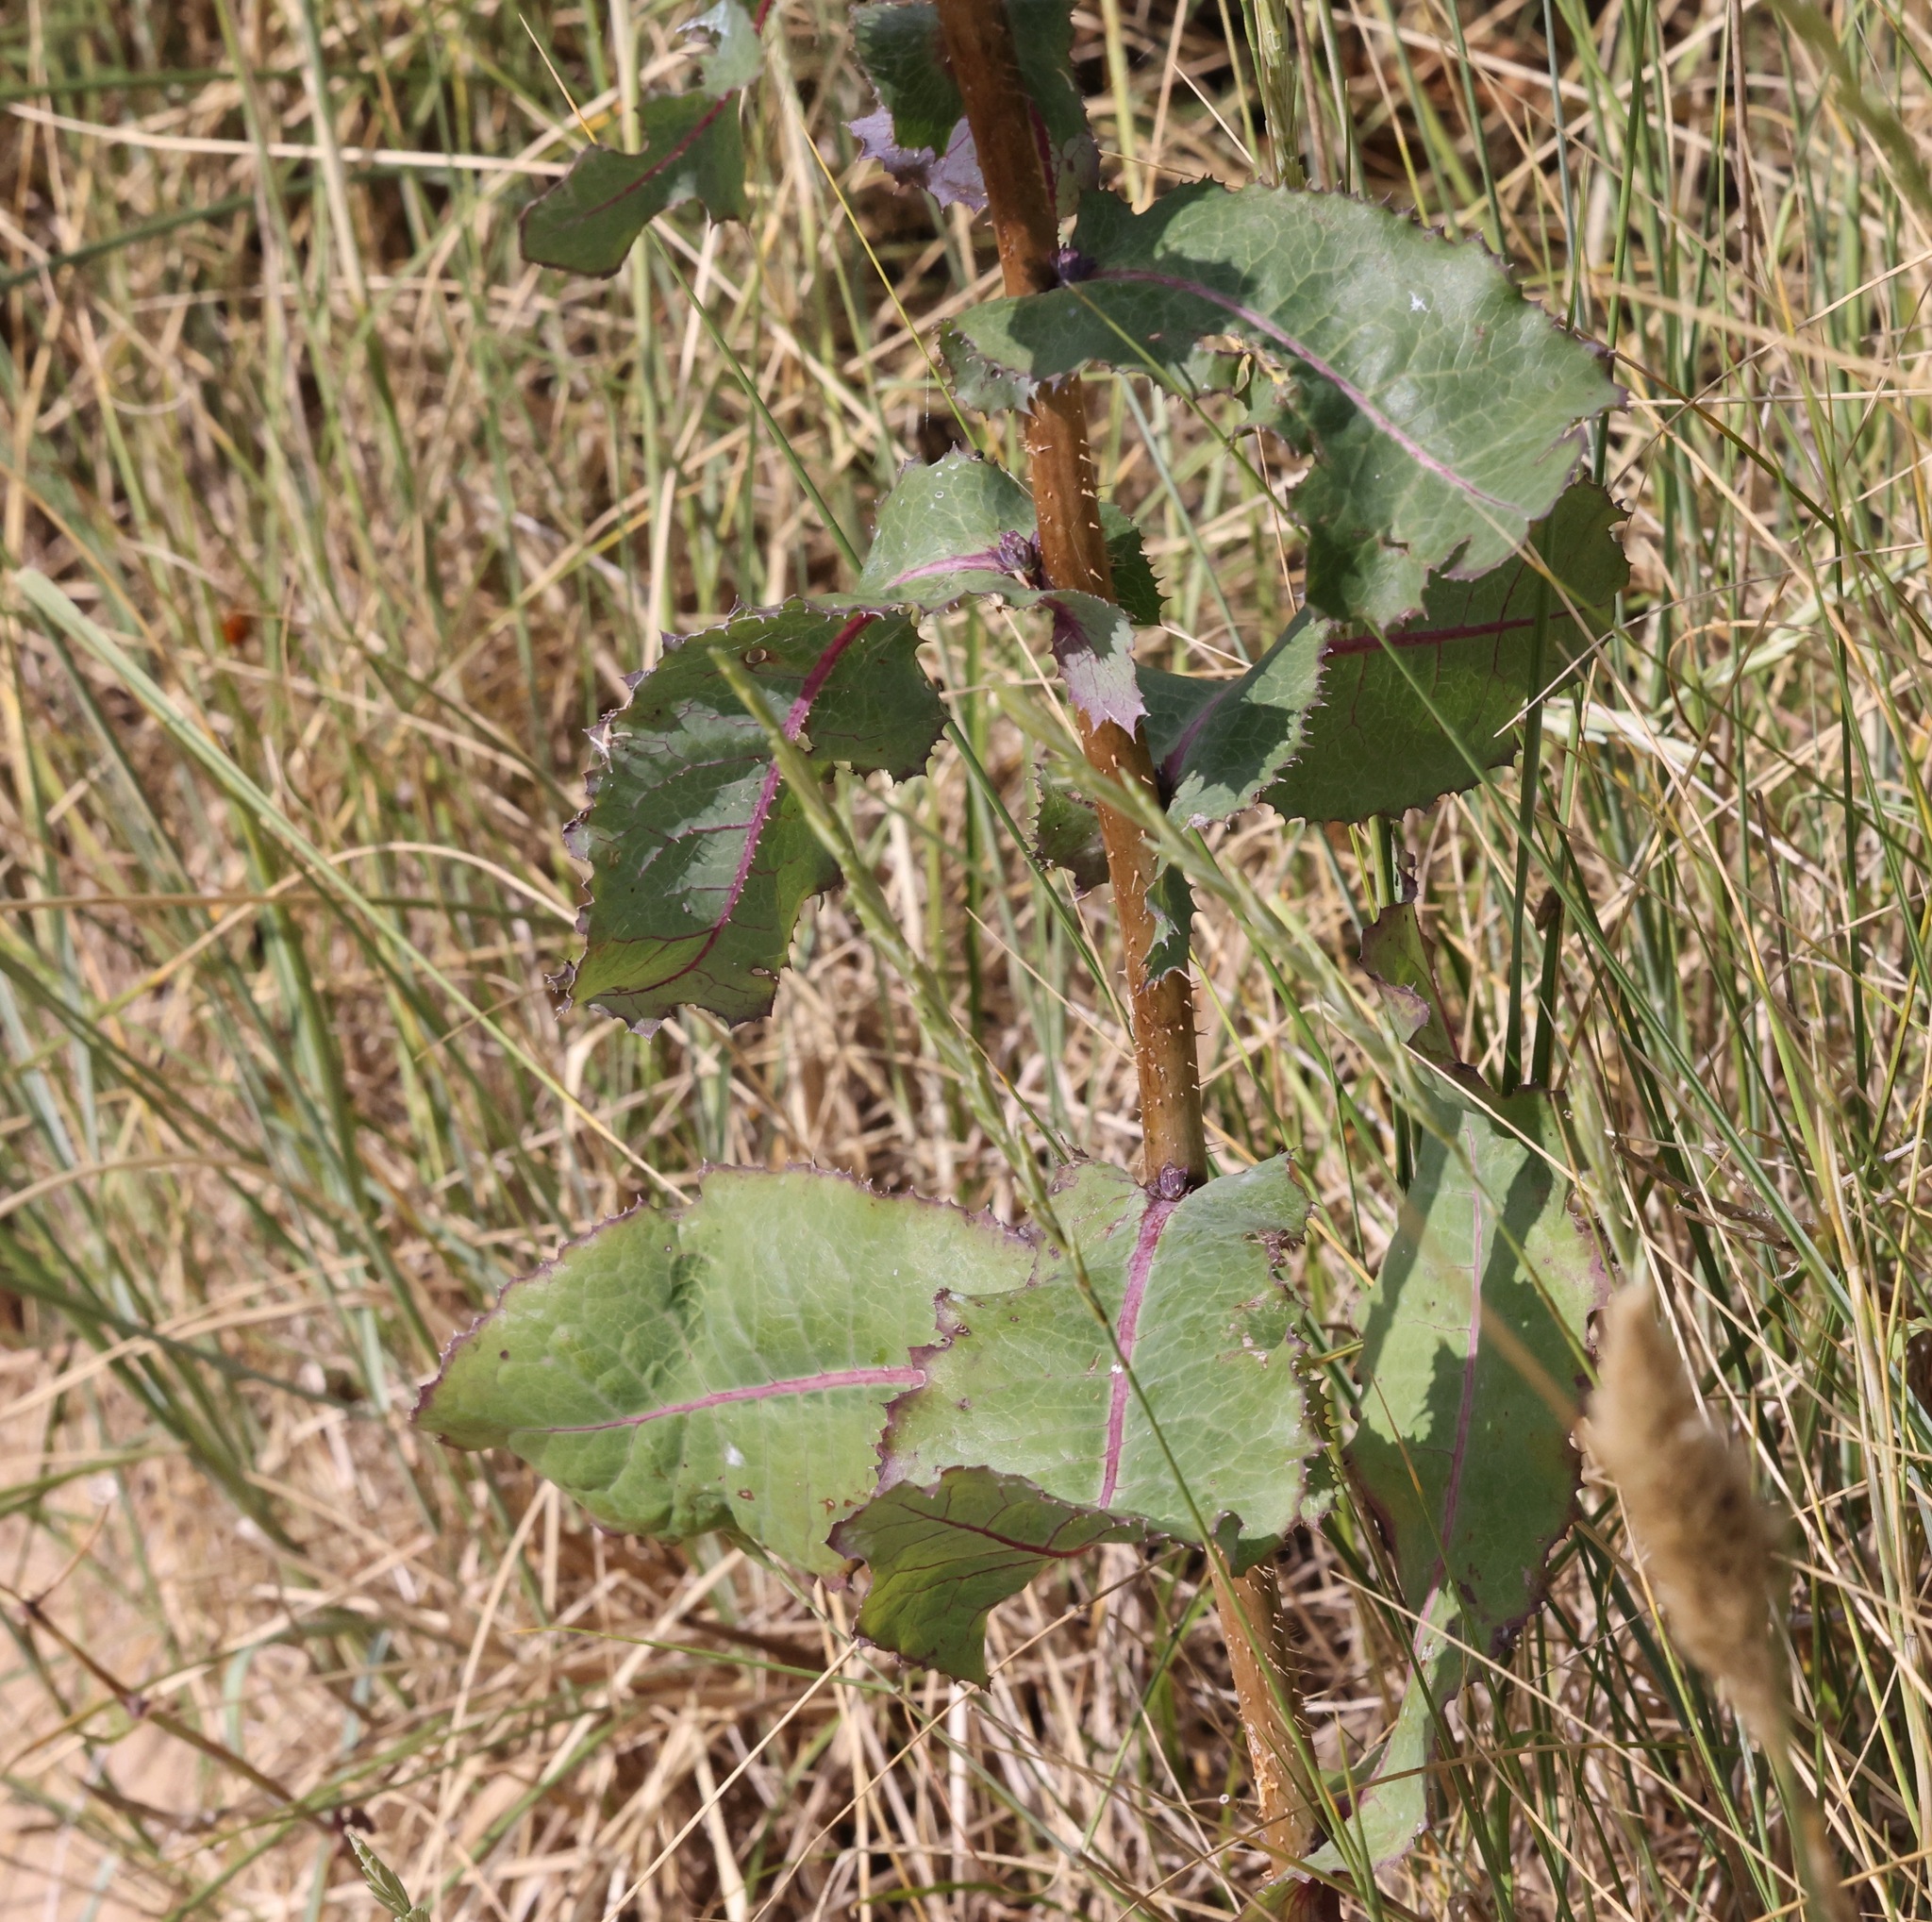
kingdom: Plantae
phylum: Tracheophyta
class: Magnoliopsida
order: Asterales
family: Asteraceae
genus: Lactuca
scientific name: Lactuca virosa
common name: Great lettuce
